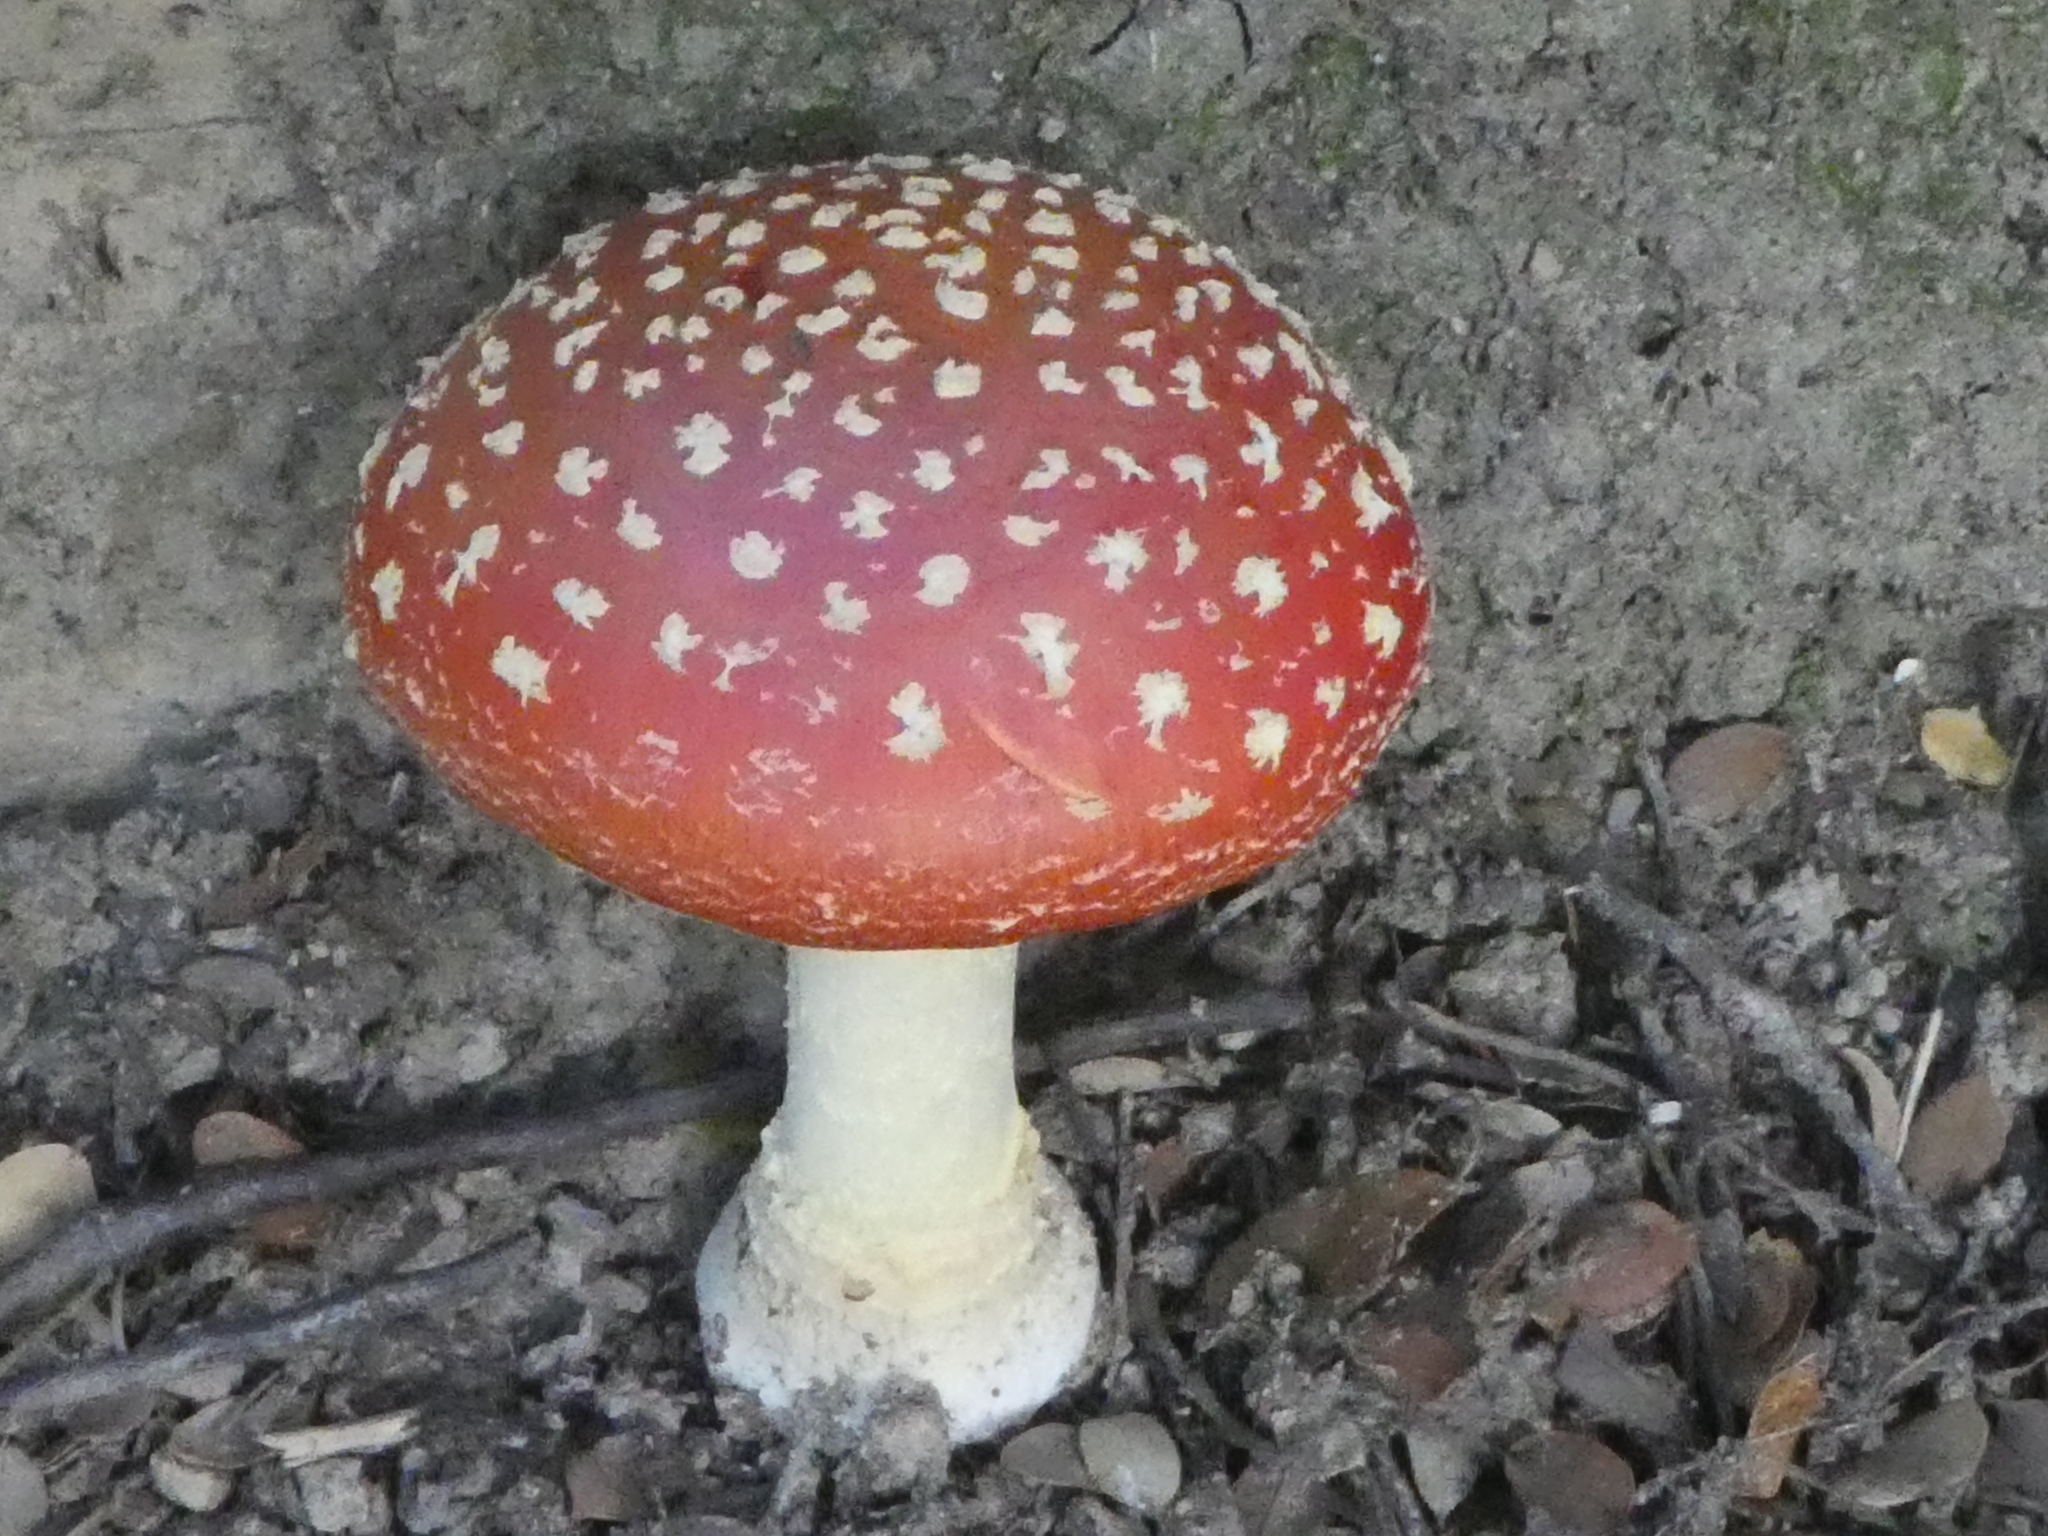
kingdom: Fungi
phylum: Basidiomycota
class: Agaricomycetes
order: Agaricales
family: Amanitaceae
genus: Amanita
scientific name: Amanita muscaria
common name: Fly agaric
